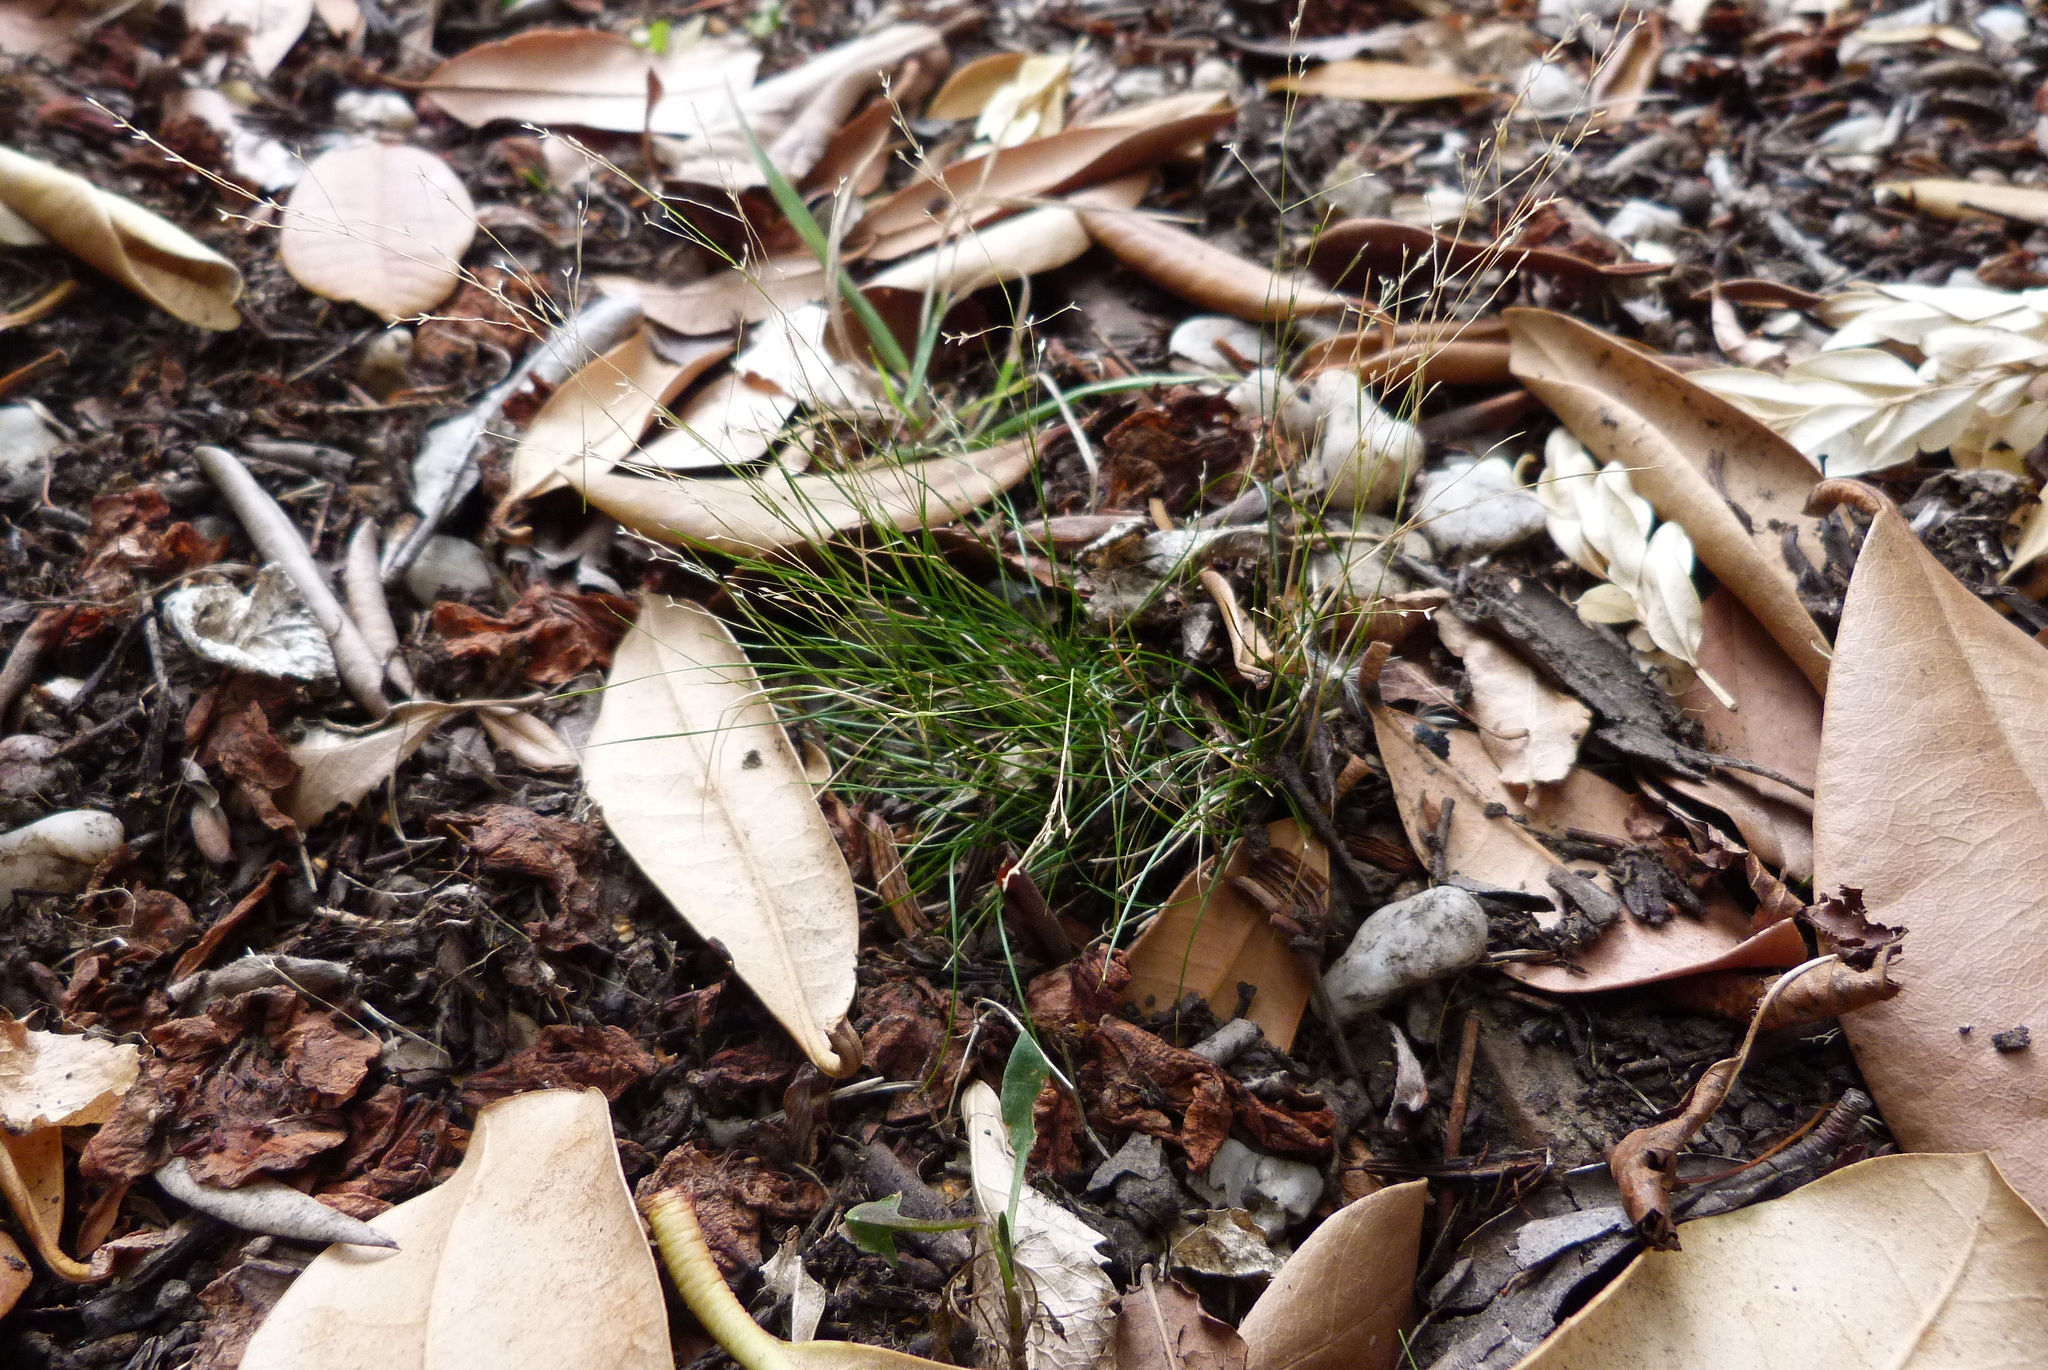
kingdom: Plantae
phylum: Tracheophyta
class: Liliopsida
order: Poales
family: Poaceae
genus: Poa
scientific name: Poa imbecilla
